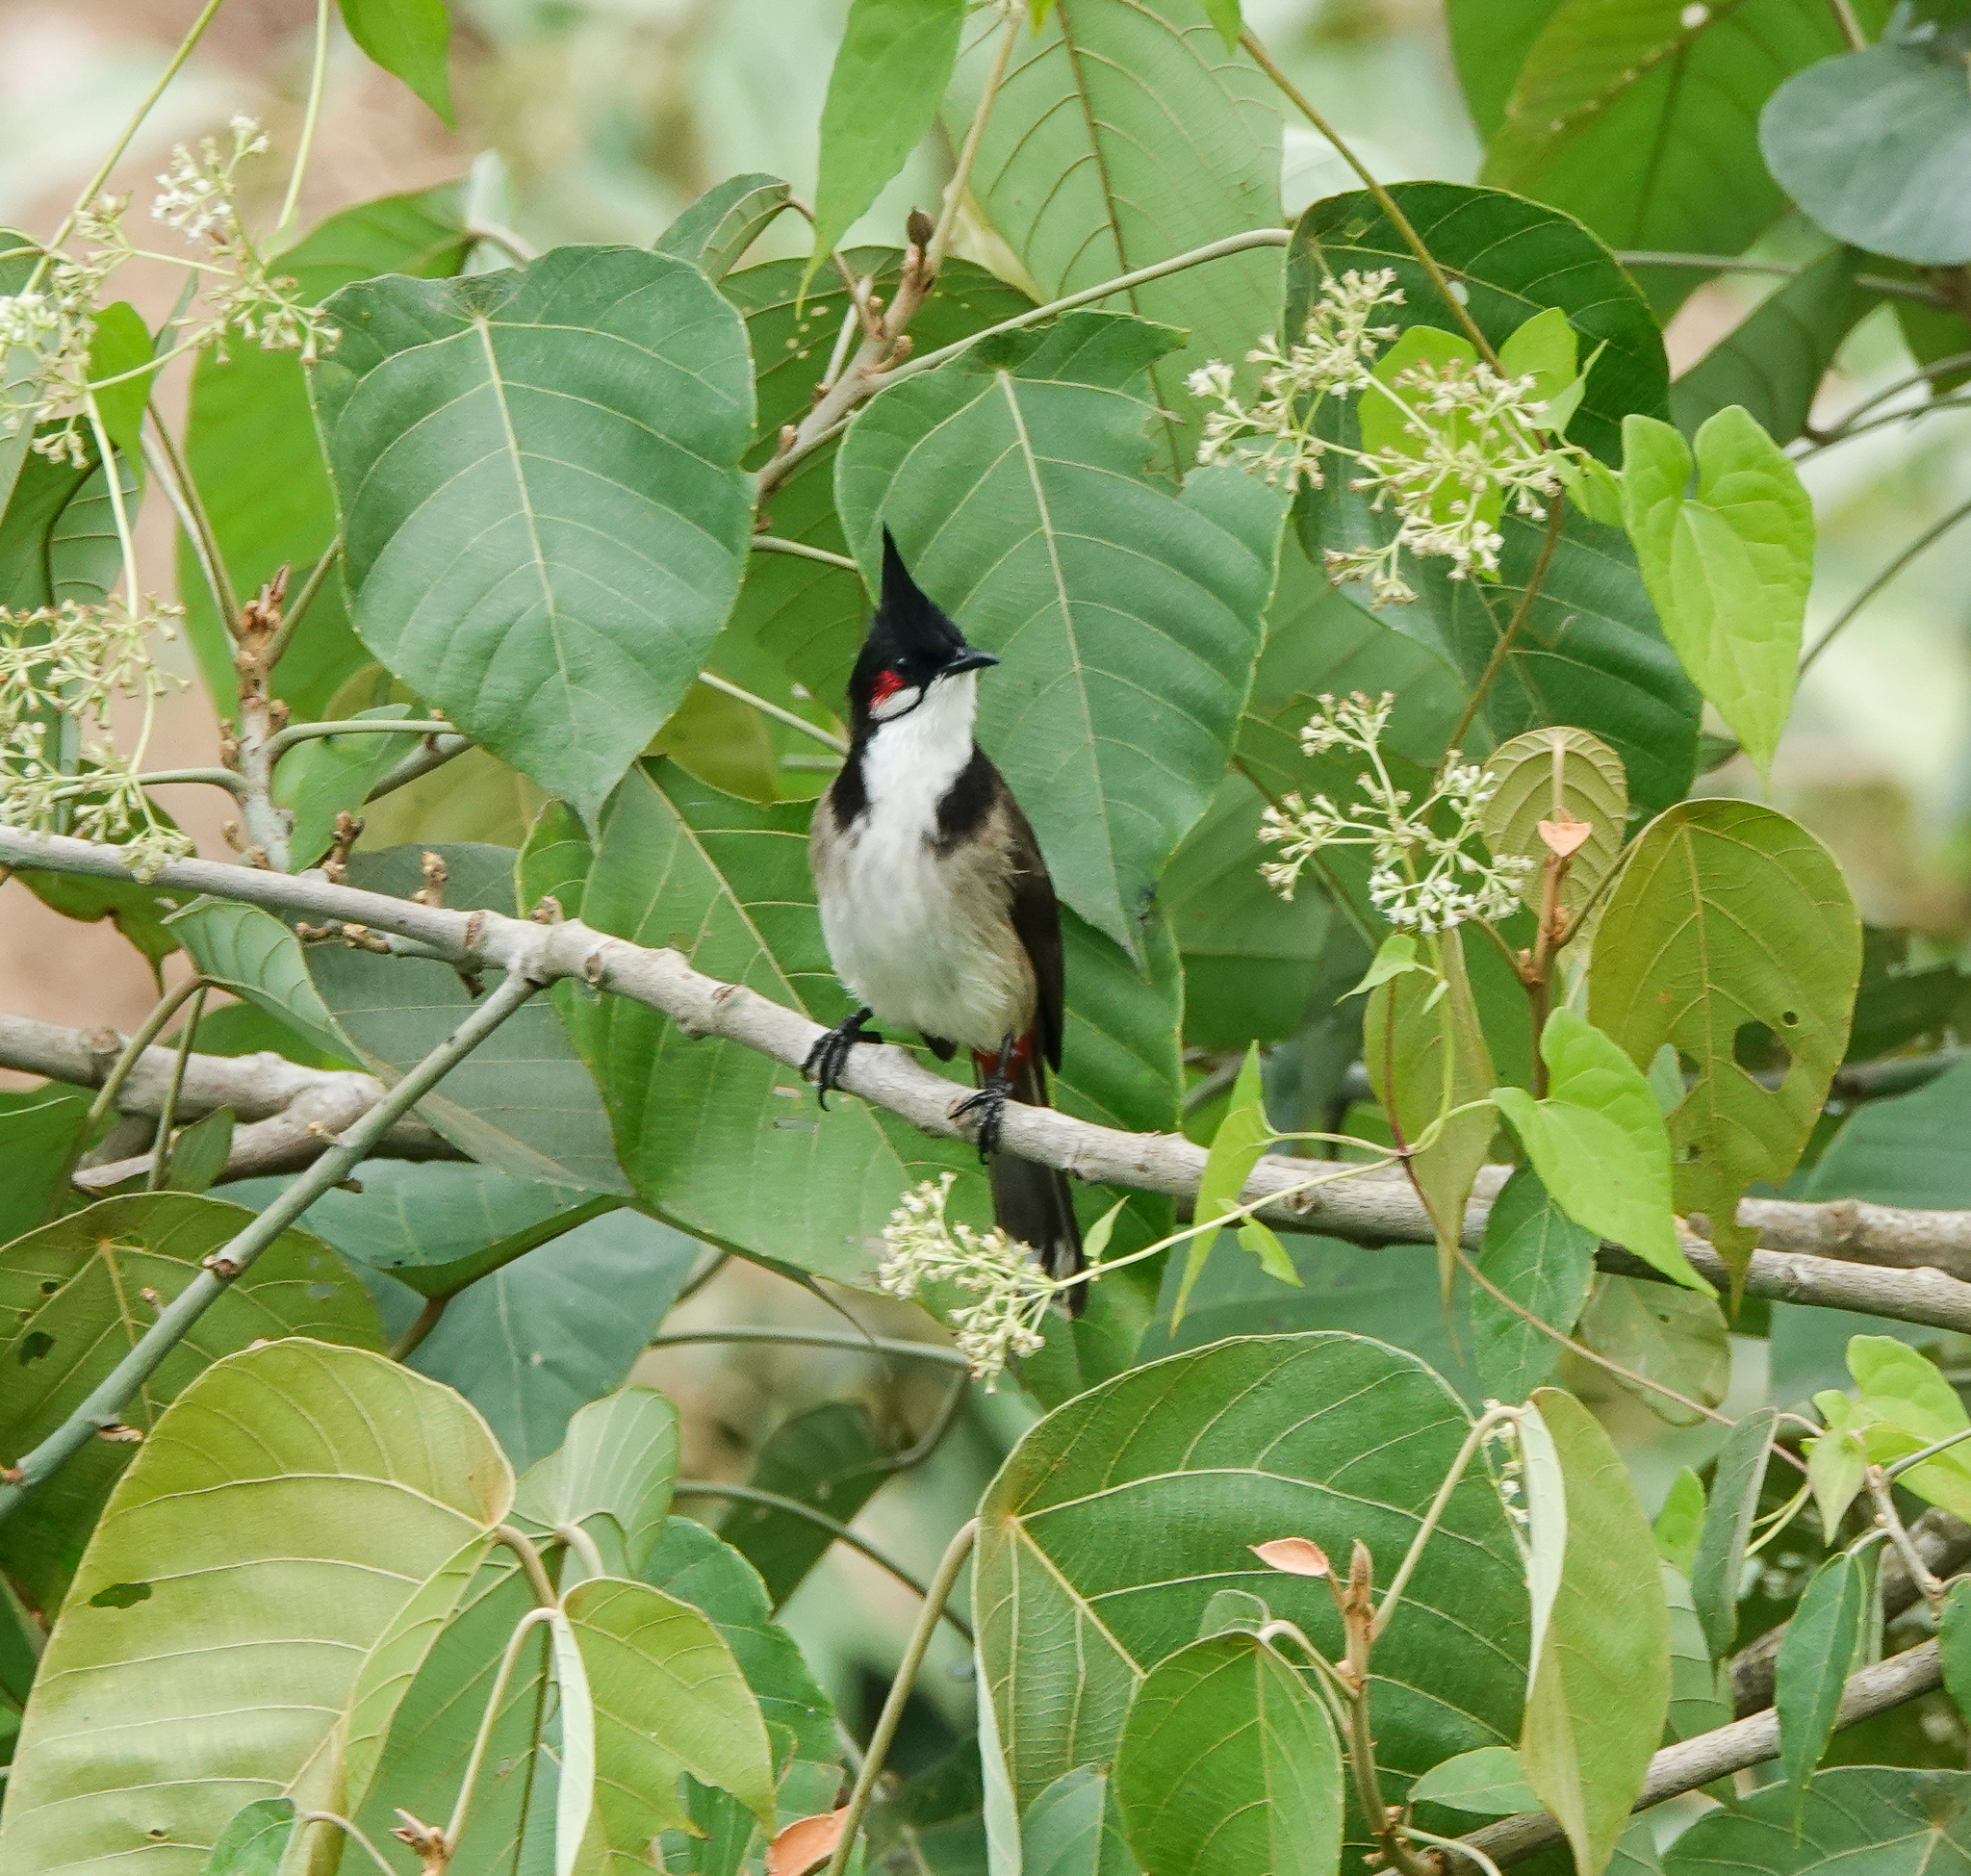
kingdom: Animalia
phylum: Chordata
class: Aves
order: Passeriformes
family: Pycnonotidae
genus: Pycnonotus
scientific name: Pycnonotus jocosus
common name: Red-whiskered bulbul
